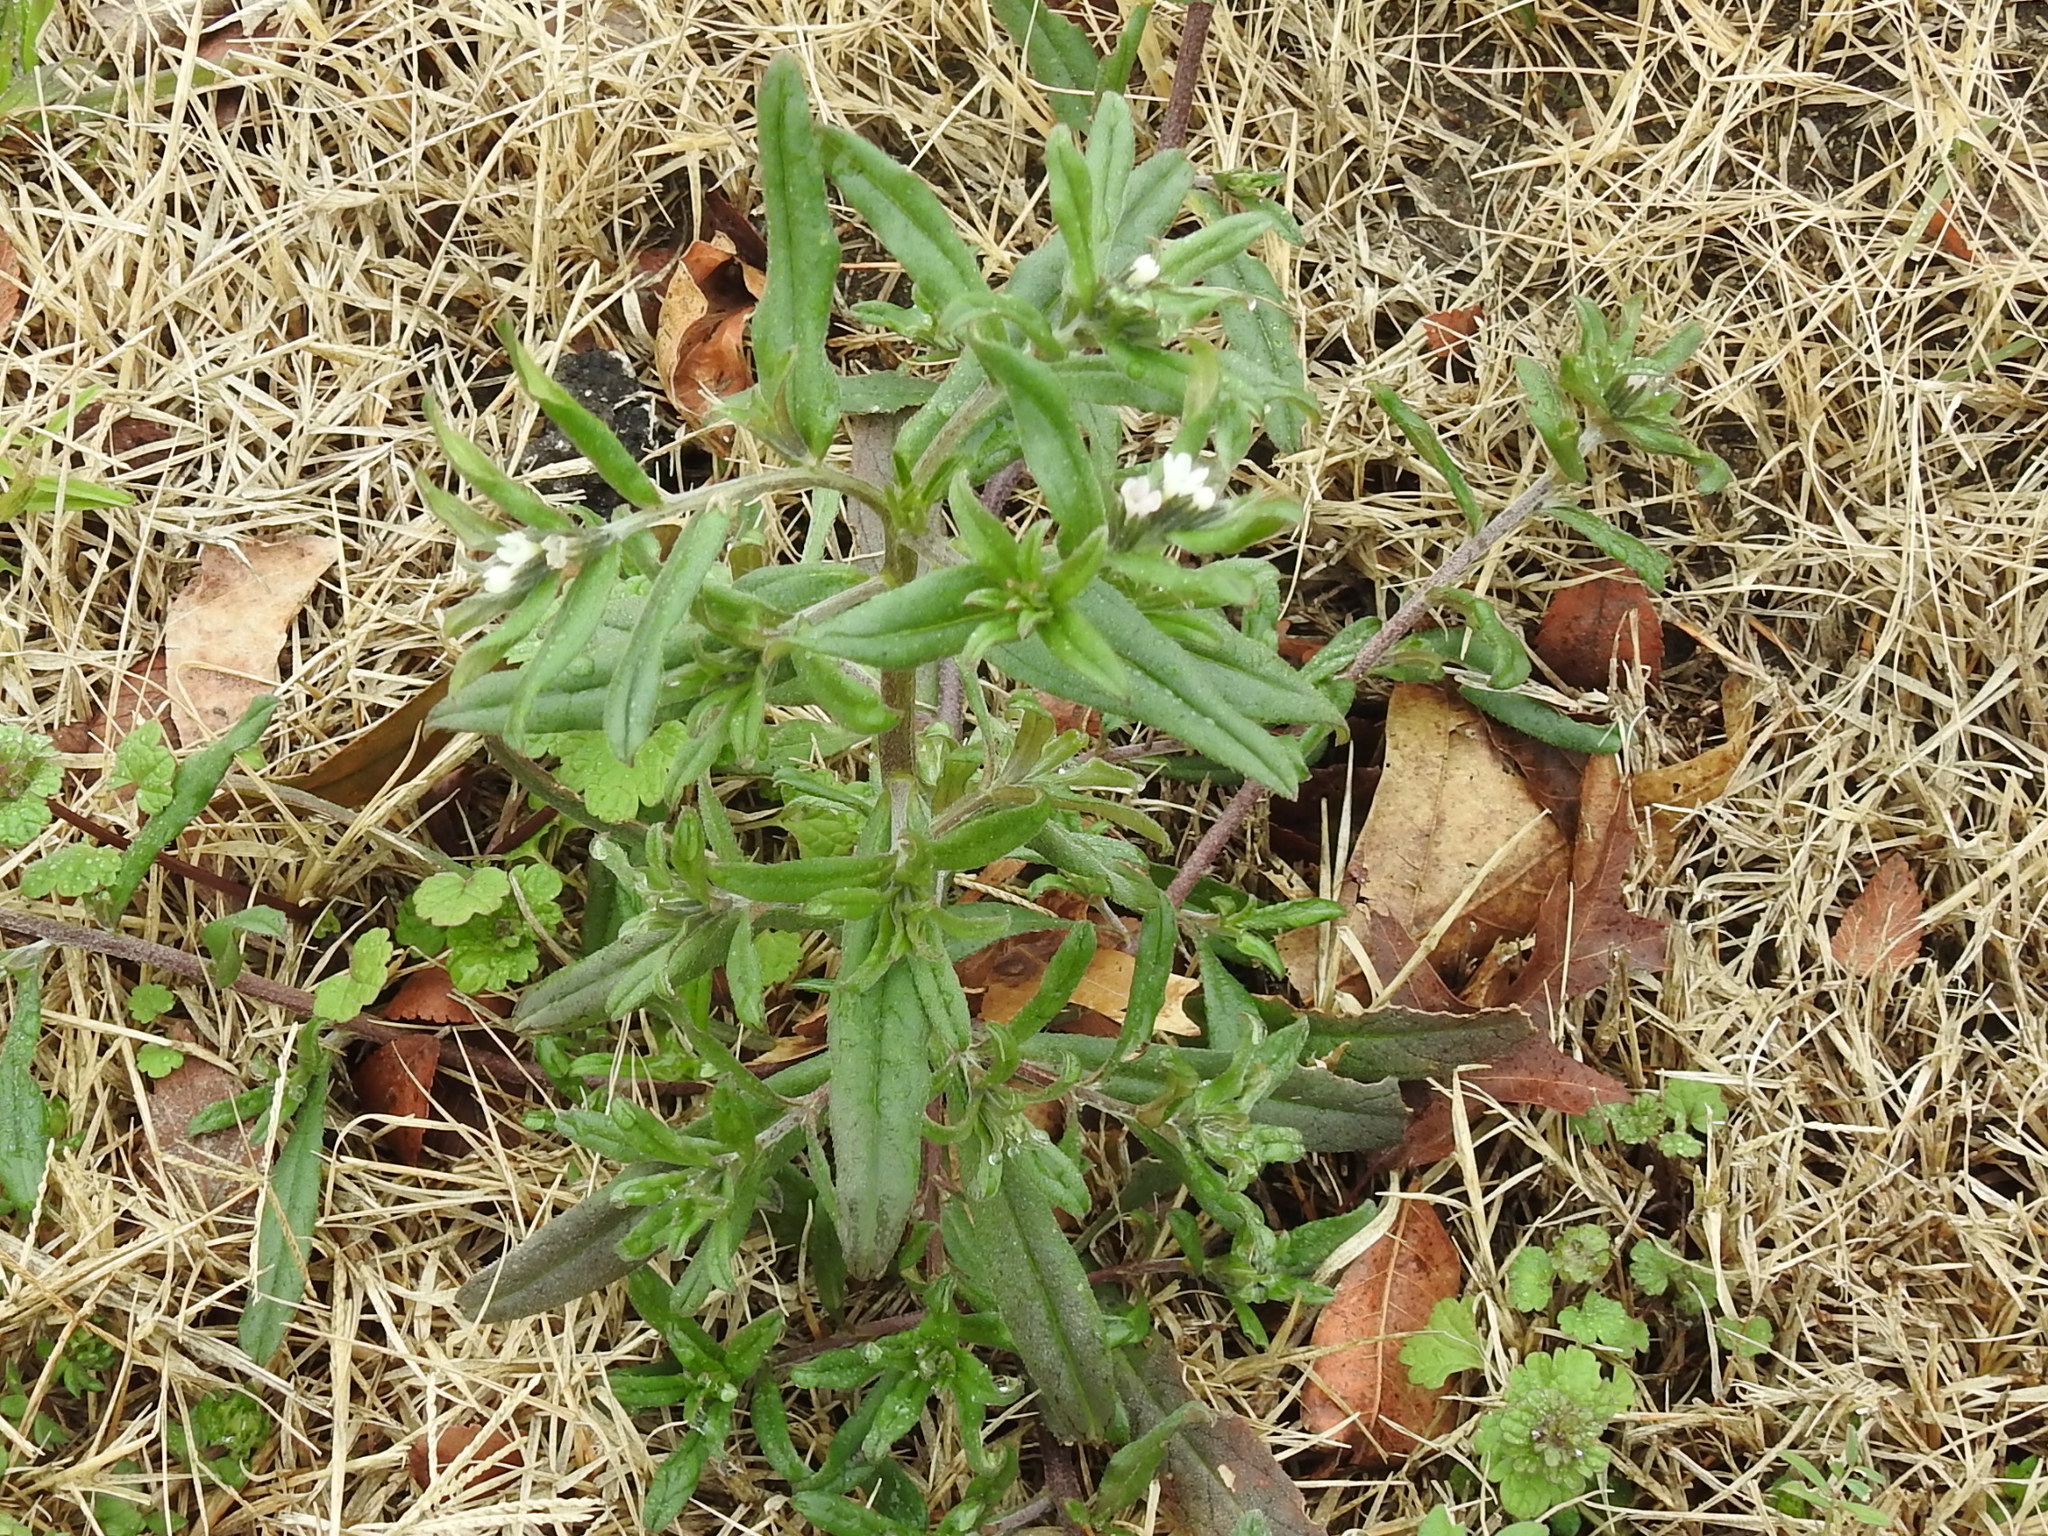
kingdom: Plantae
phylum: Tracheophyta
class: Magnoliopsida
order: Boraginales
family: Boraginaceae
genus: Buglossoides
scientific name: Buglossoides arvensis
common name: Corn gromwell
